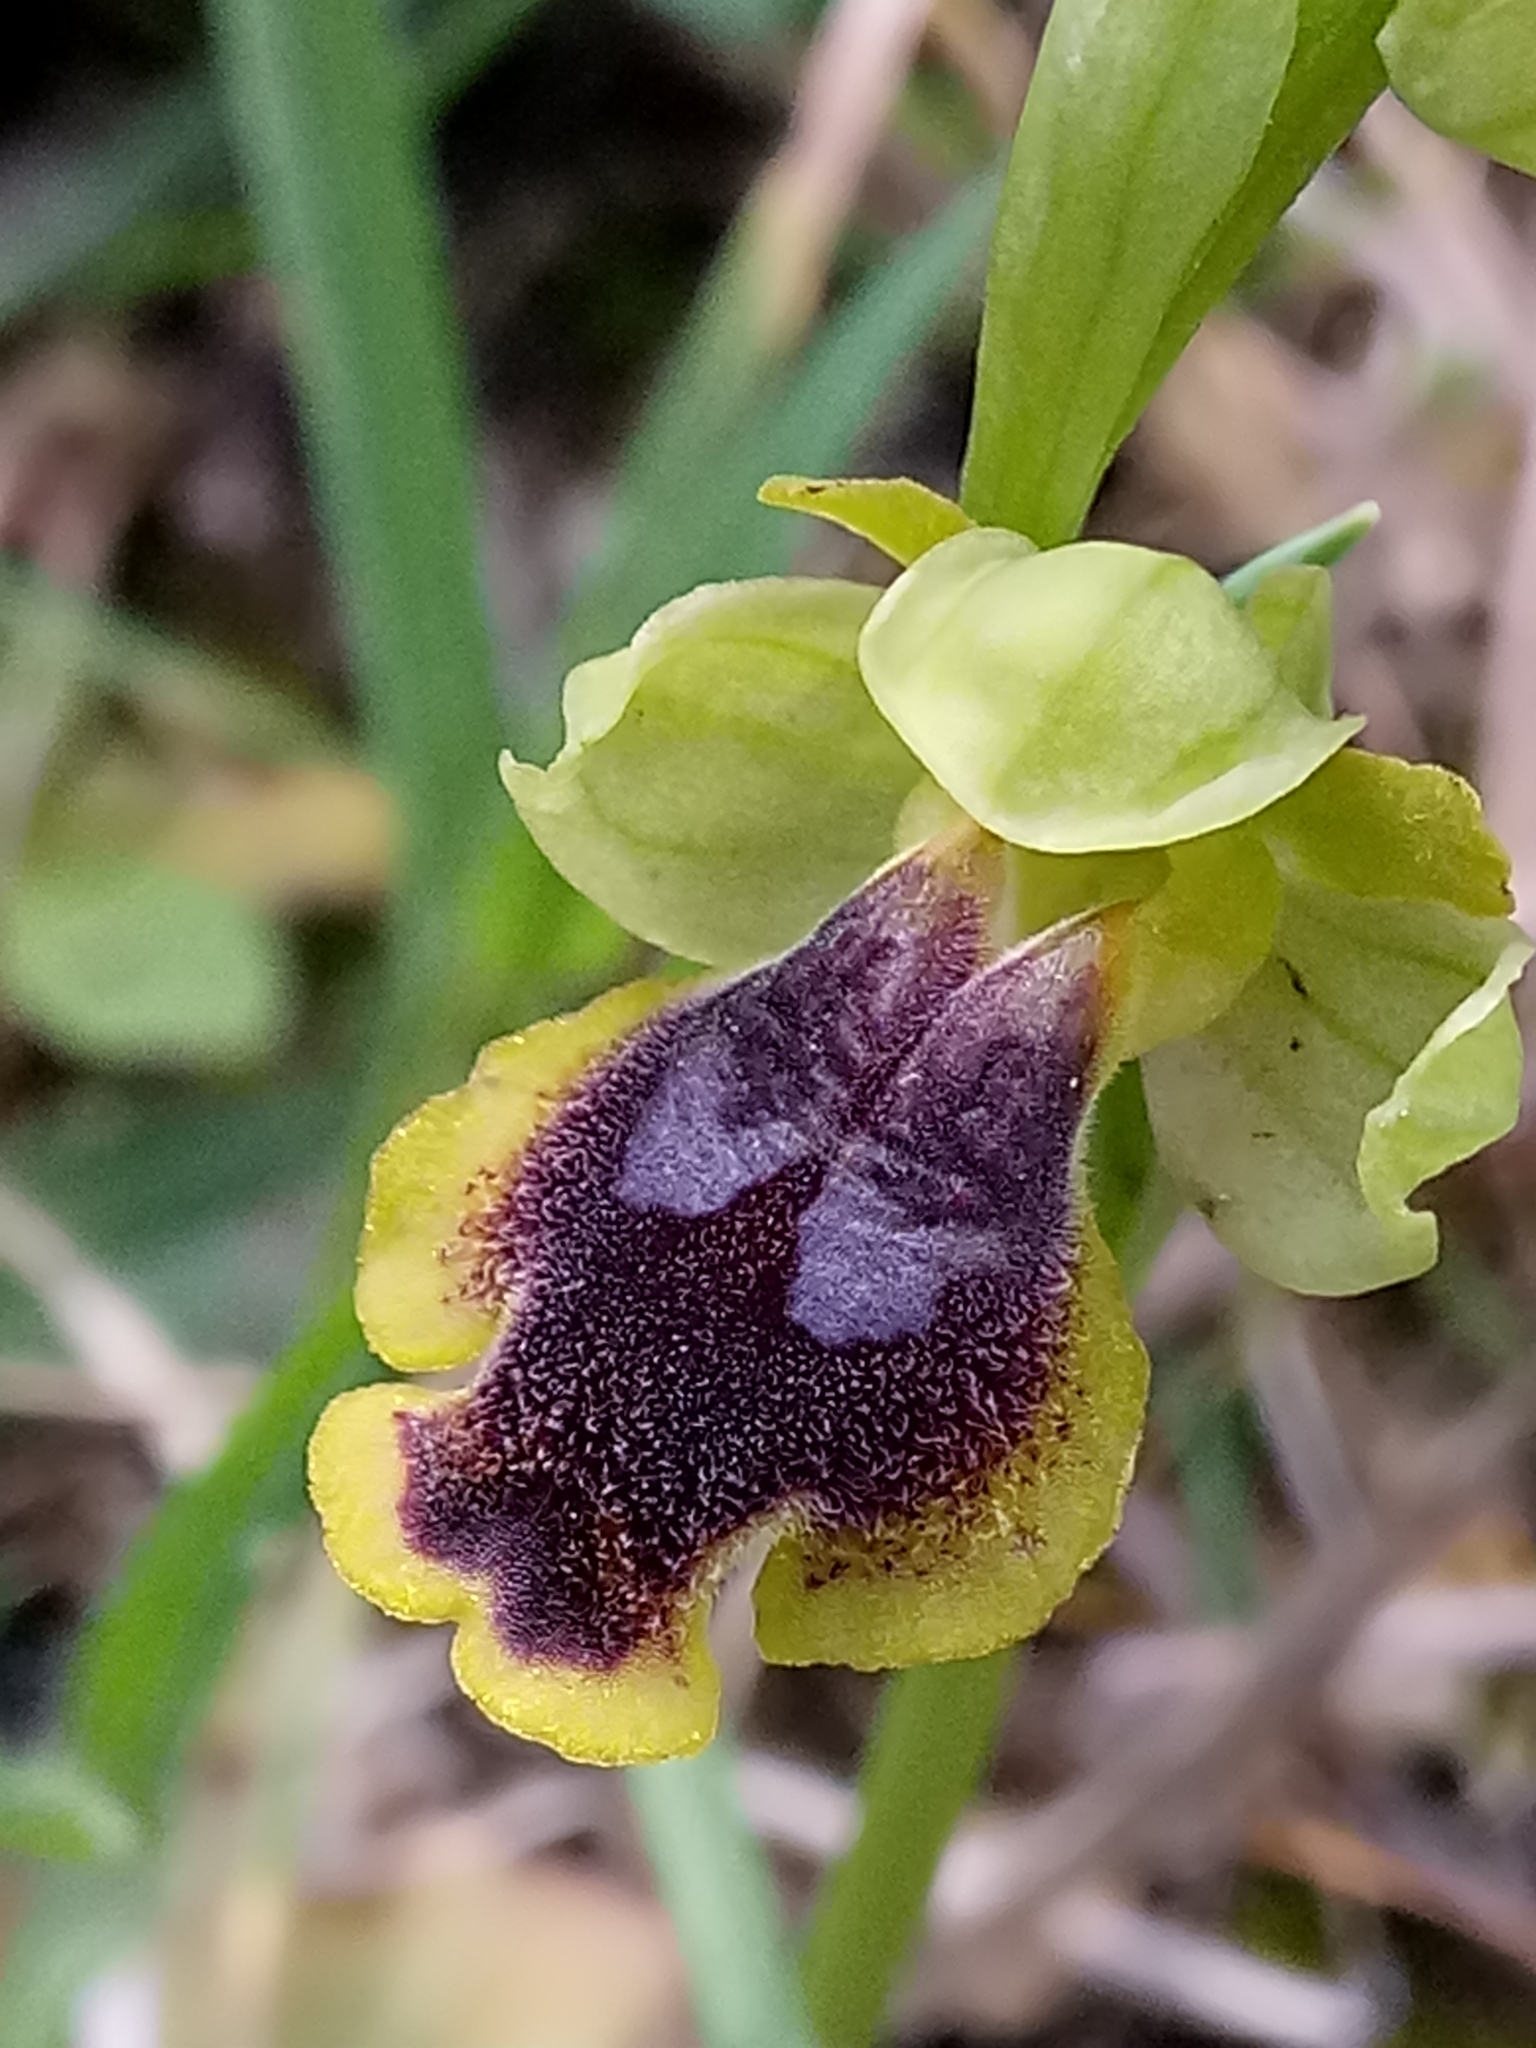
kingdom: Plantae
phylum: Tracheophyta
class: Liliopsida
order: Asparagales
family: Orchidaceae
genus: Ophrys
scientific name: Ophrys battandieri
